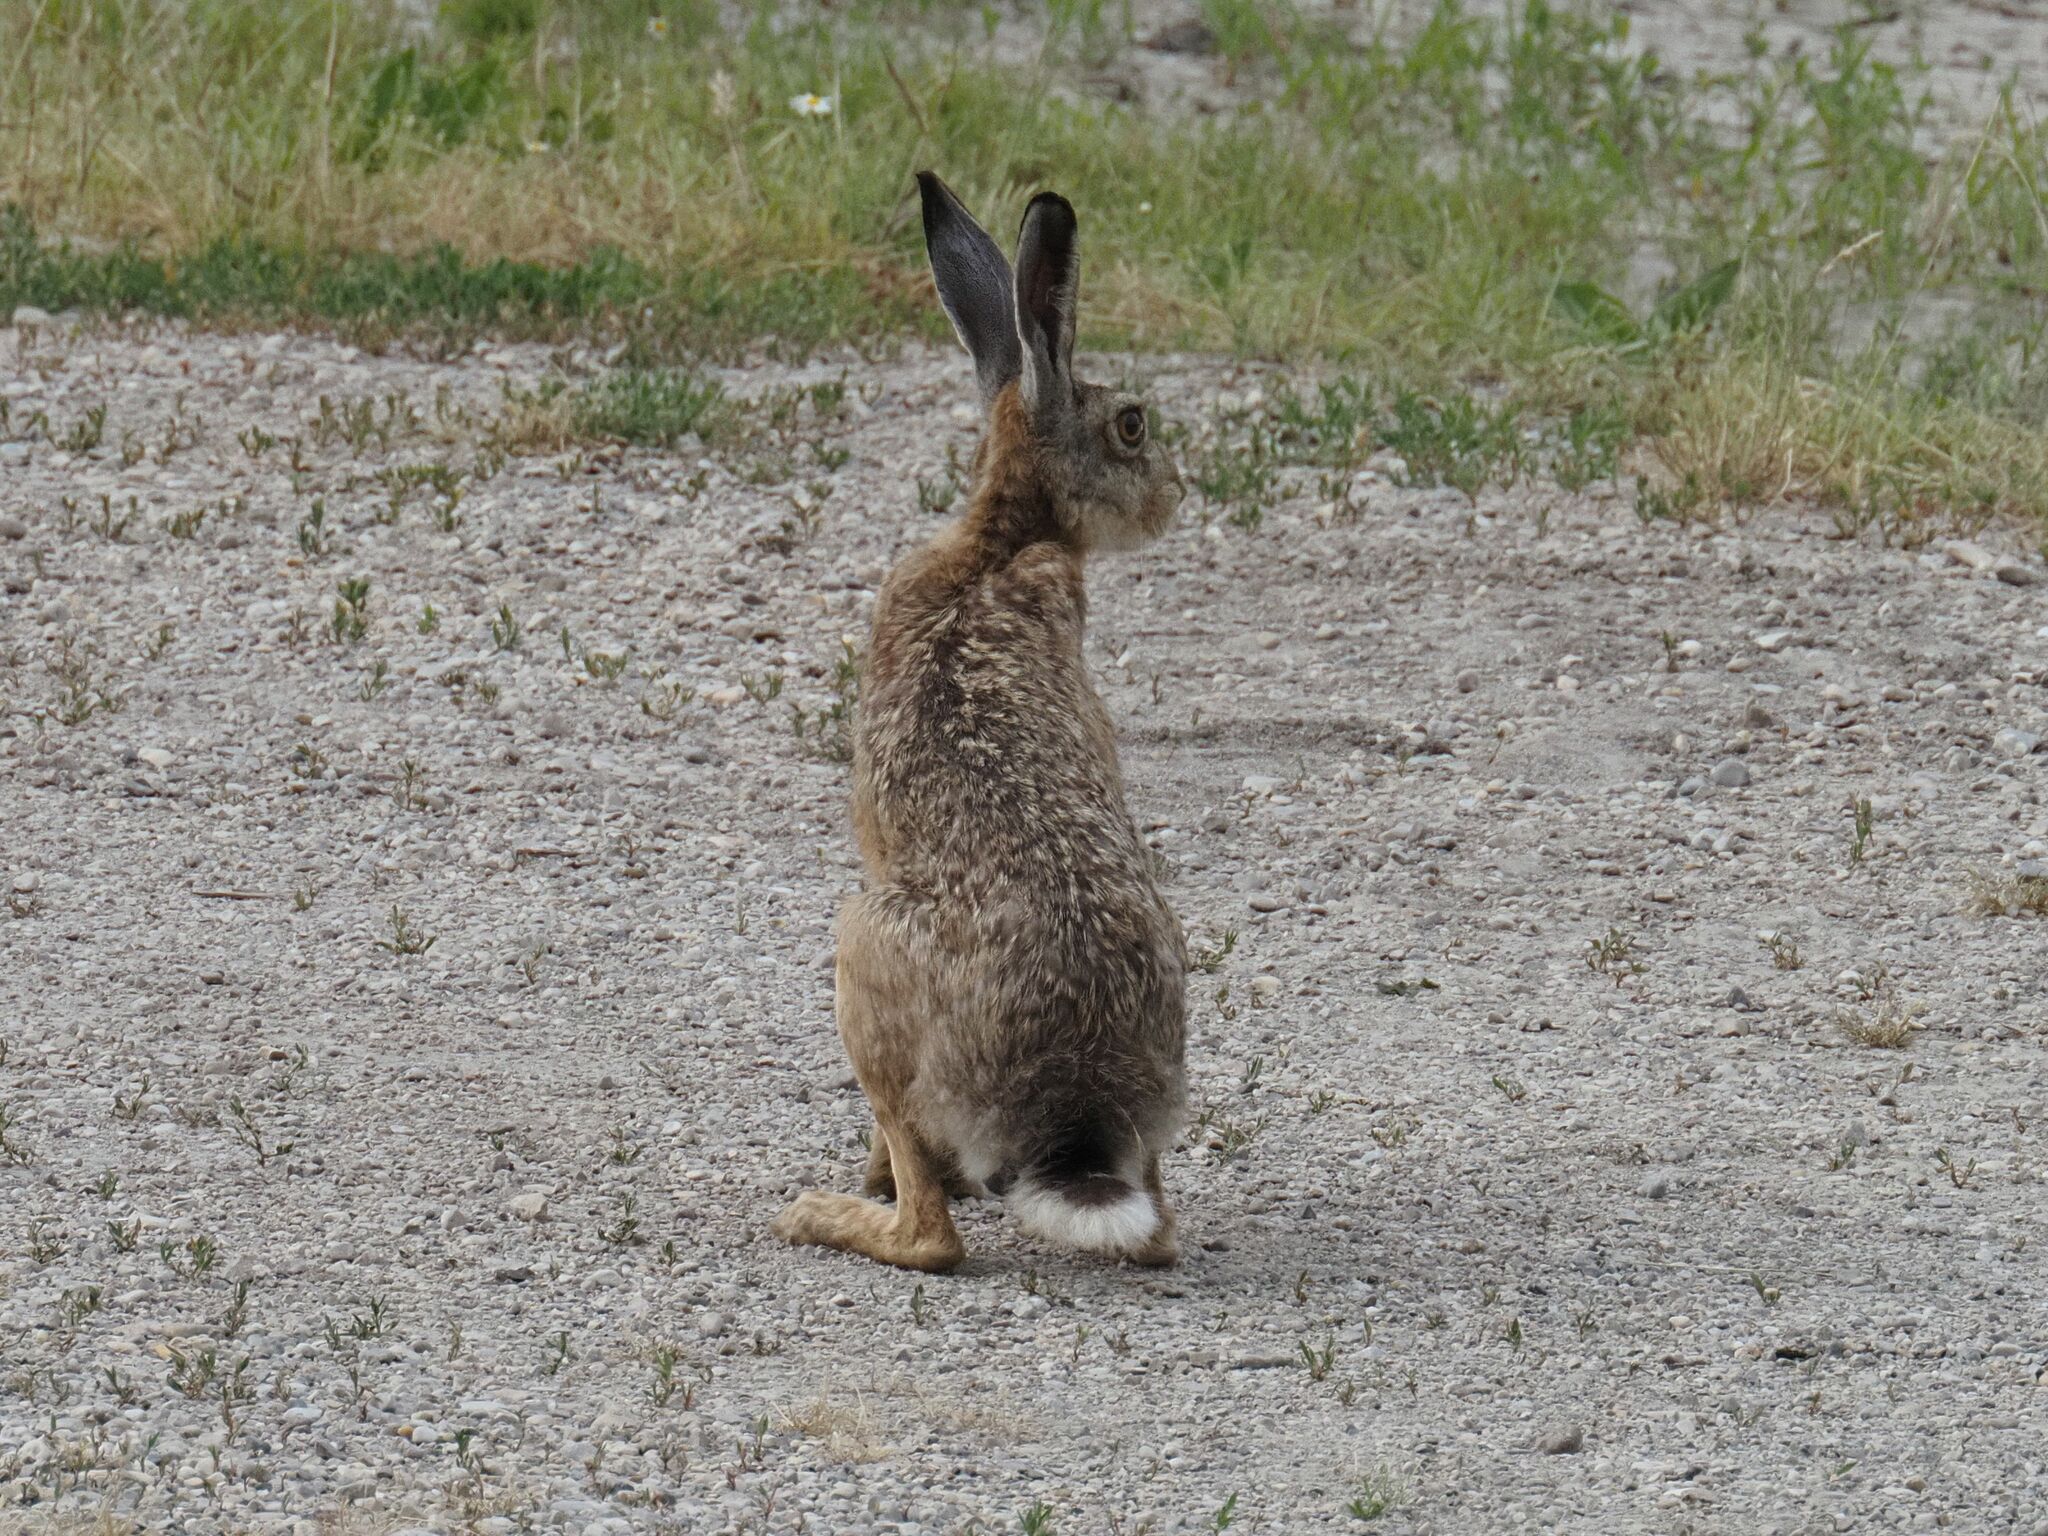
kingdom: Animalia
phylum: Chordata
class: Mammalia
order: Lagomorpha
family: Leporidae
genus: Lepus
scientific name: Lepus europaeus
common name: European hare
